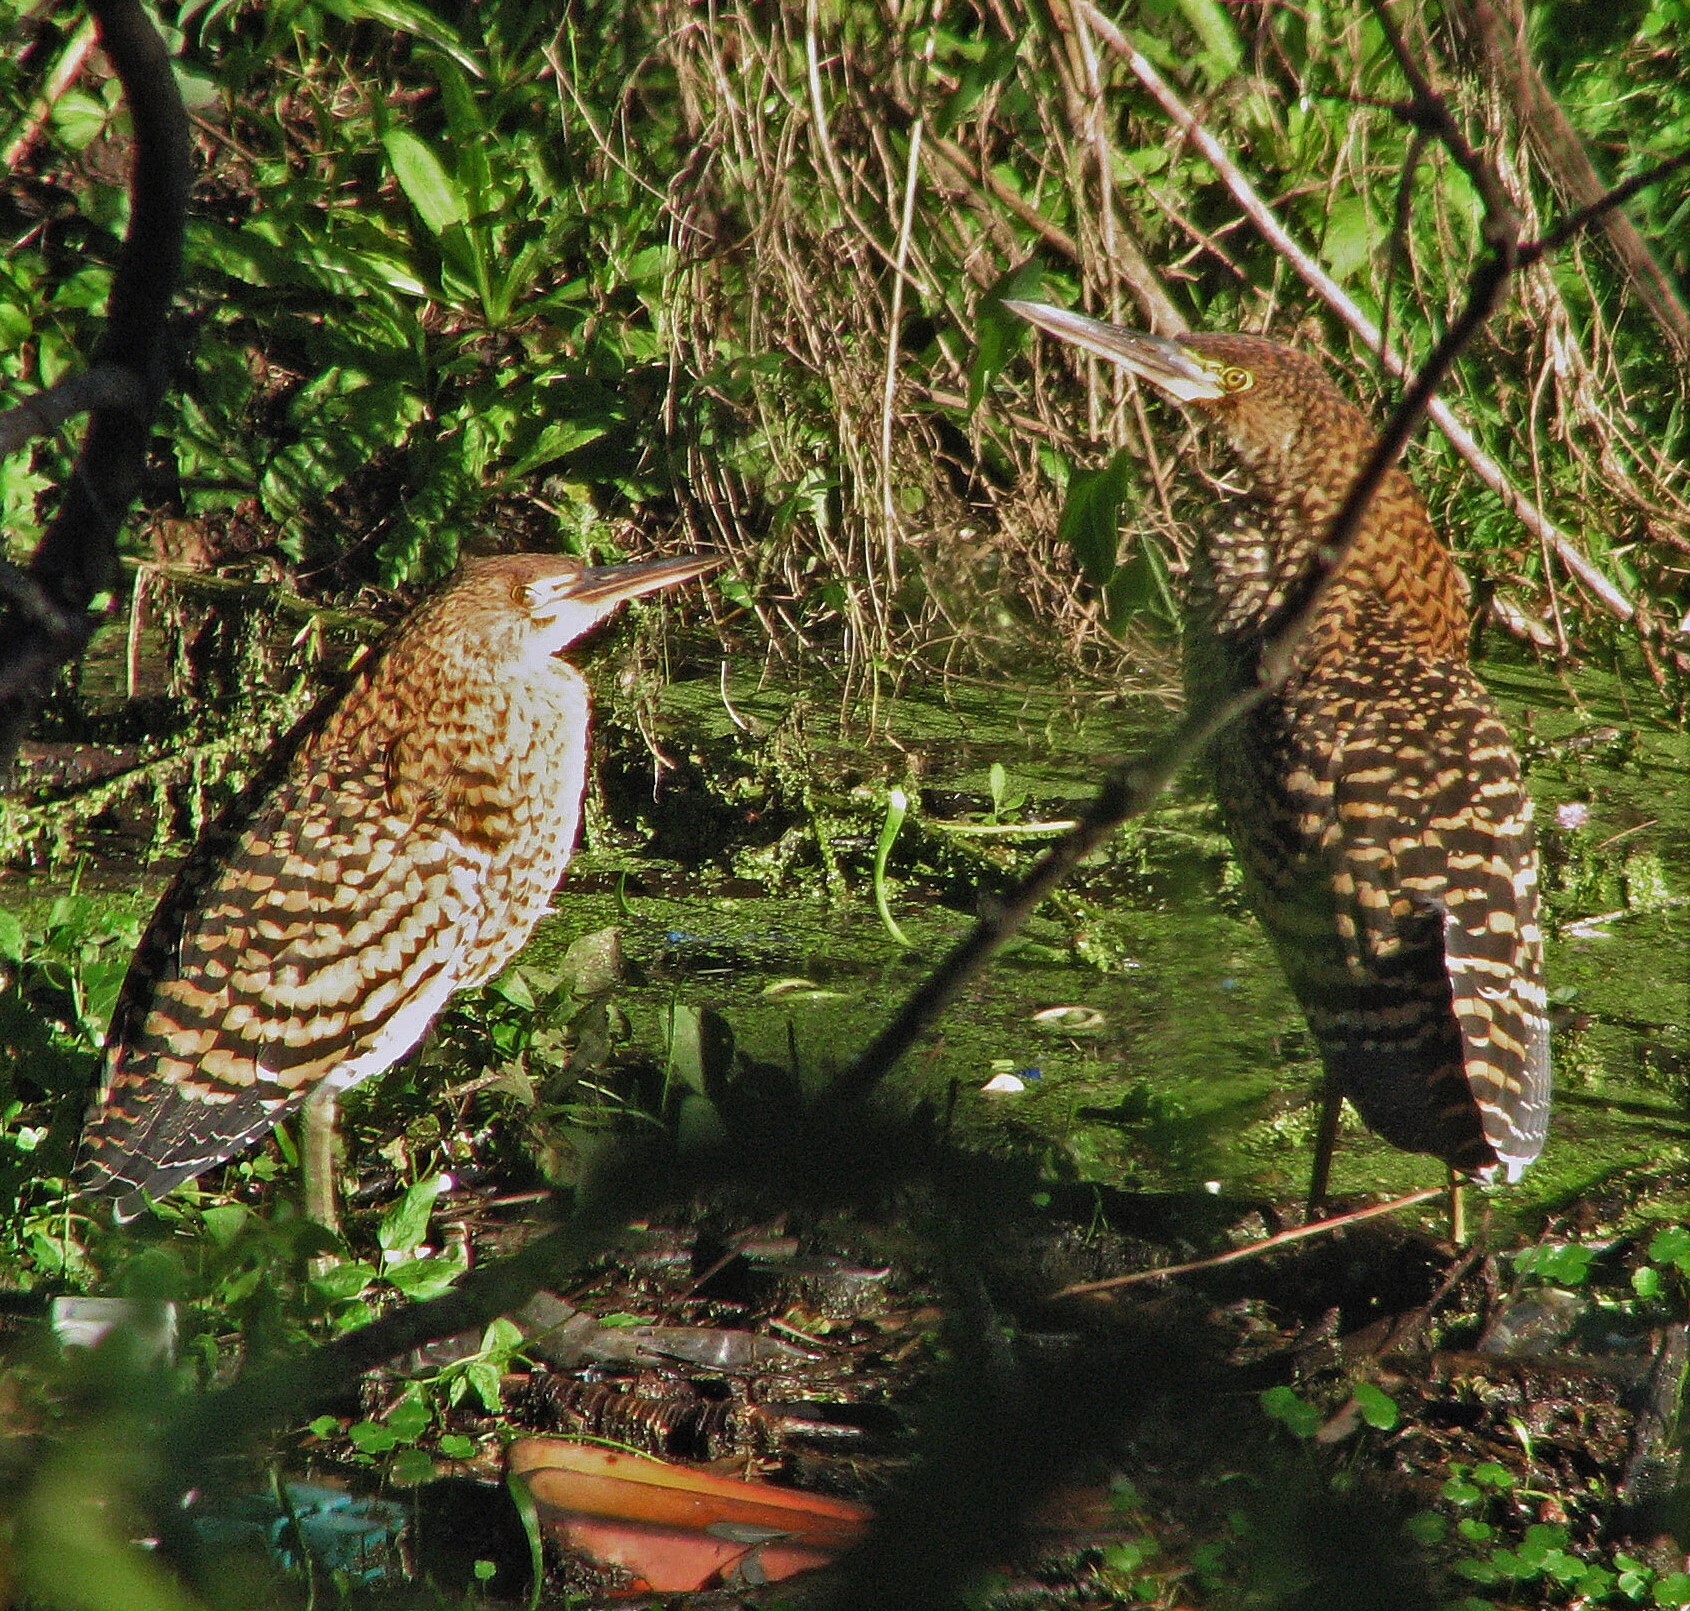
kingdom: Animalia
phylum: Chordata
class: Aves
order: Pelecaniformes
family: Ardeidae
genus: Tigrisoma
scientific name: Tigrisoma lineatum
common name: Rufescent tiger-heron
